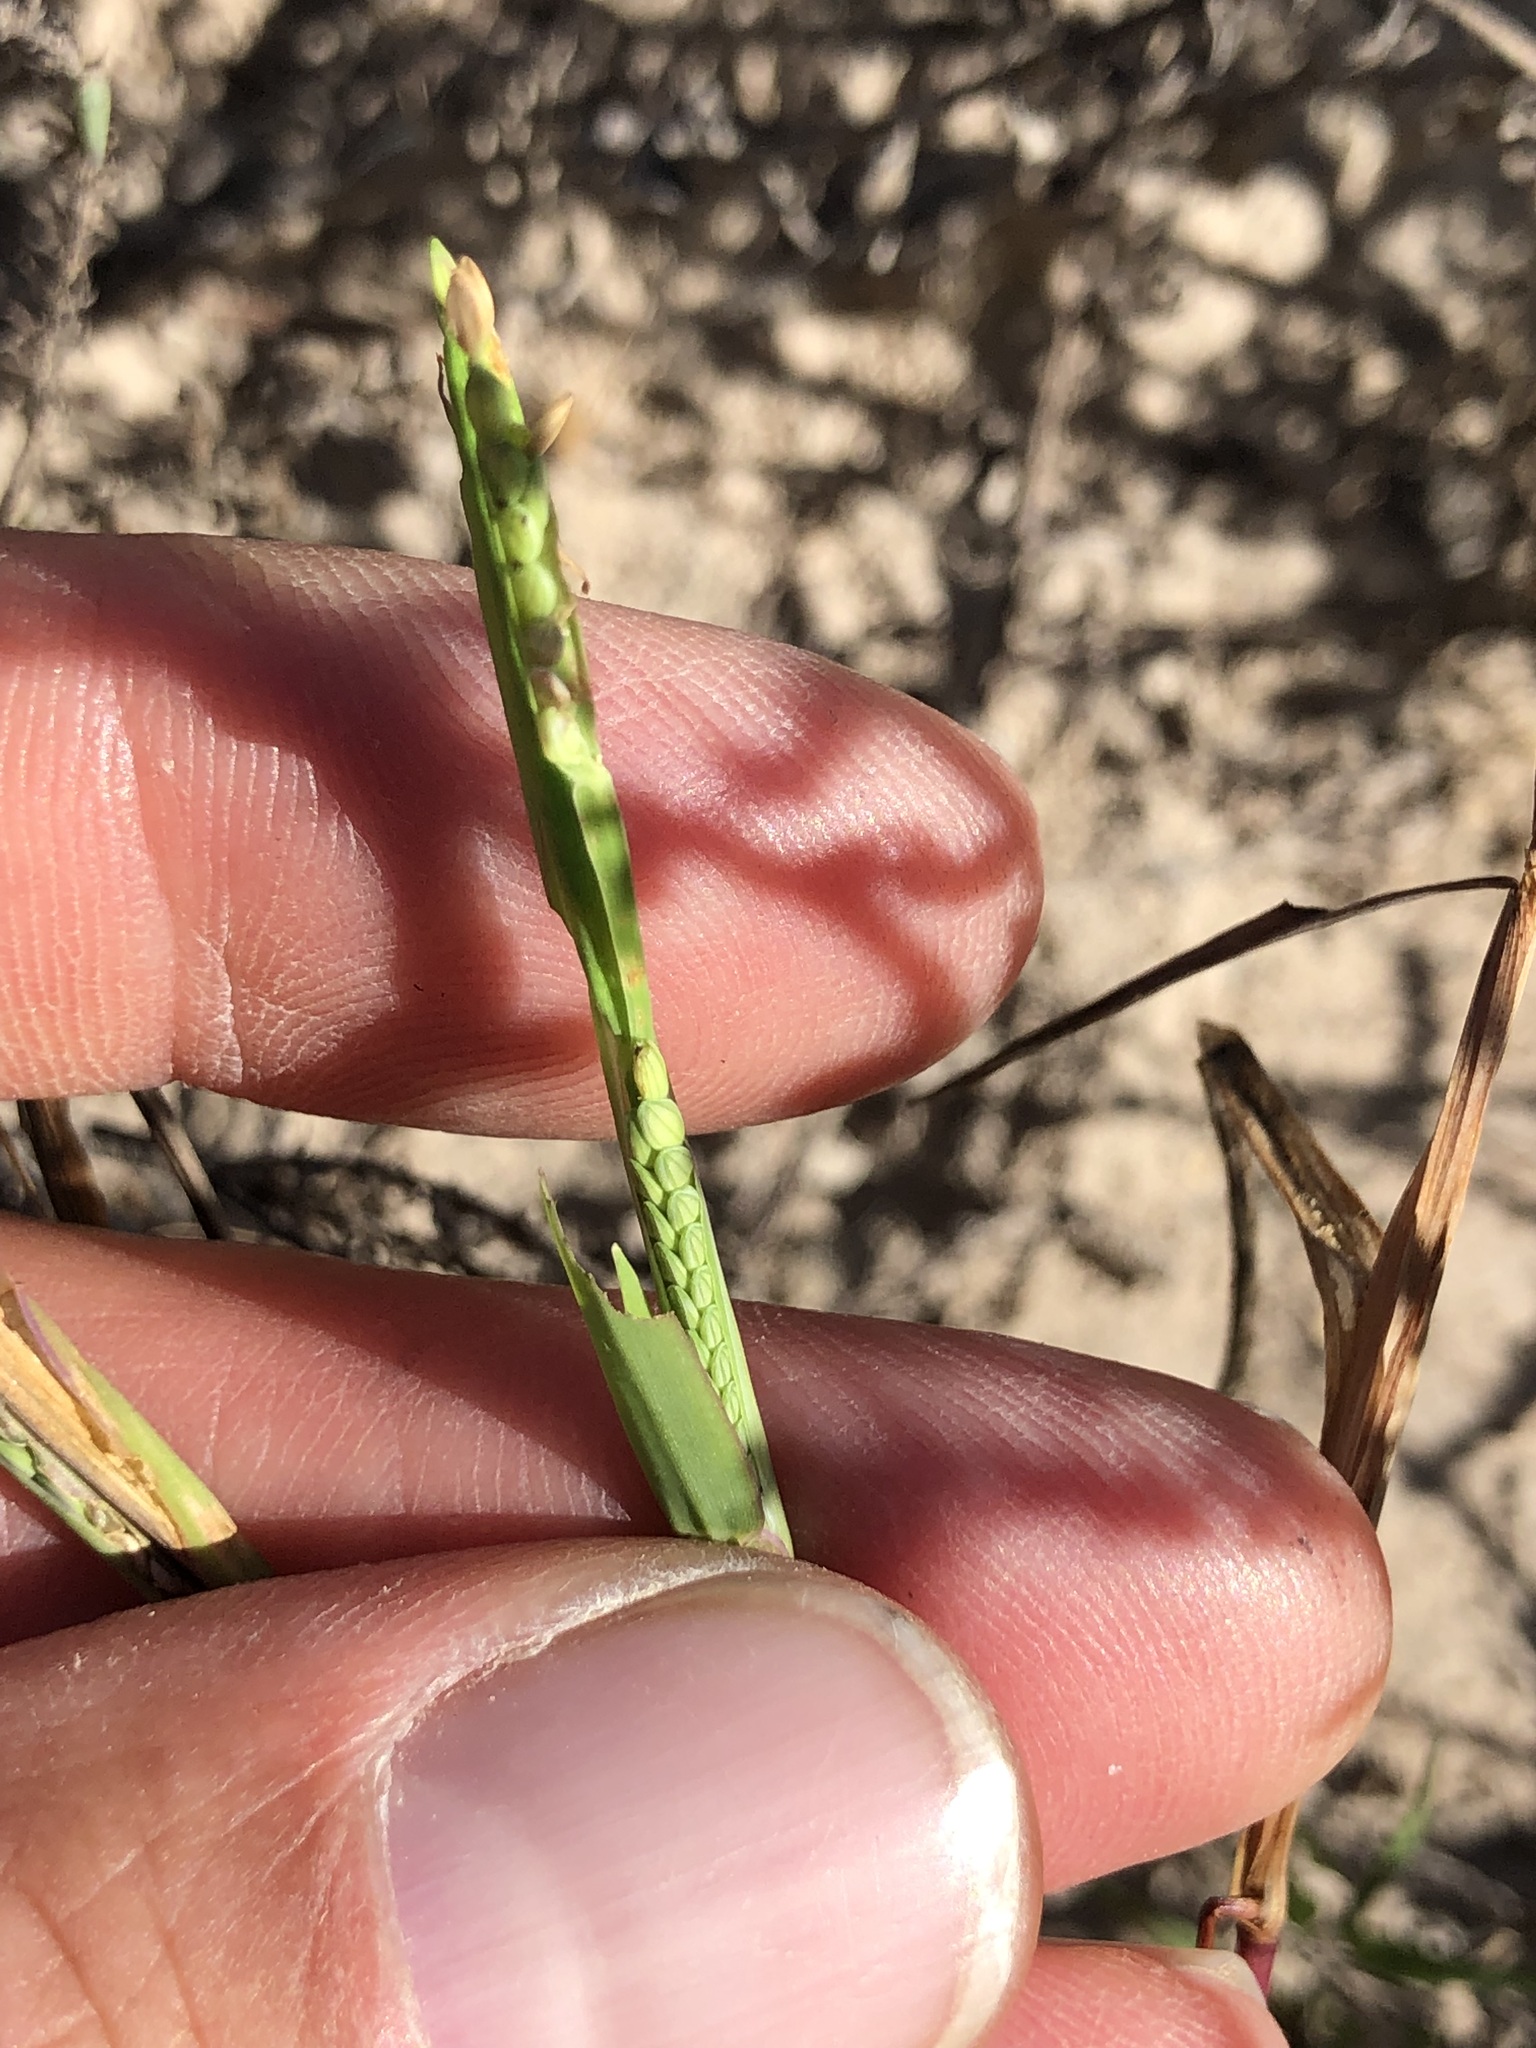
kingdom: Plantae
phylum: Tracheophyta
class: Liliopsida
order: Poales
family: Poaceae
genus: Paspalum
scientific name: Paspalum acuminatum
